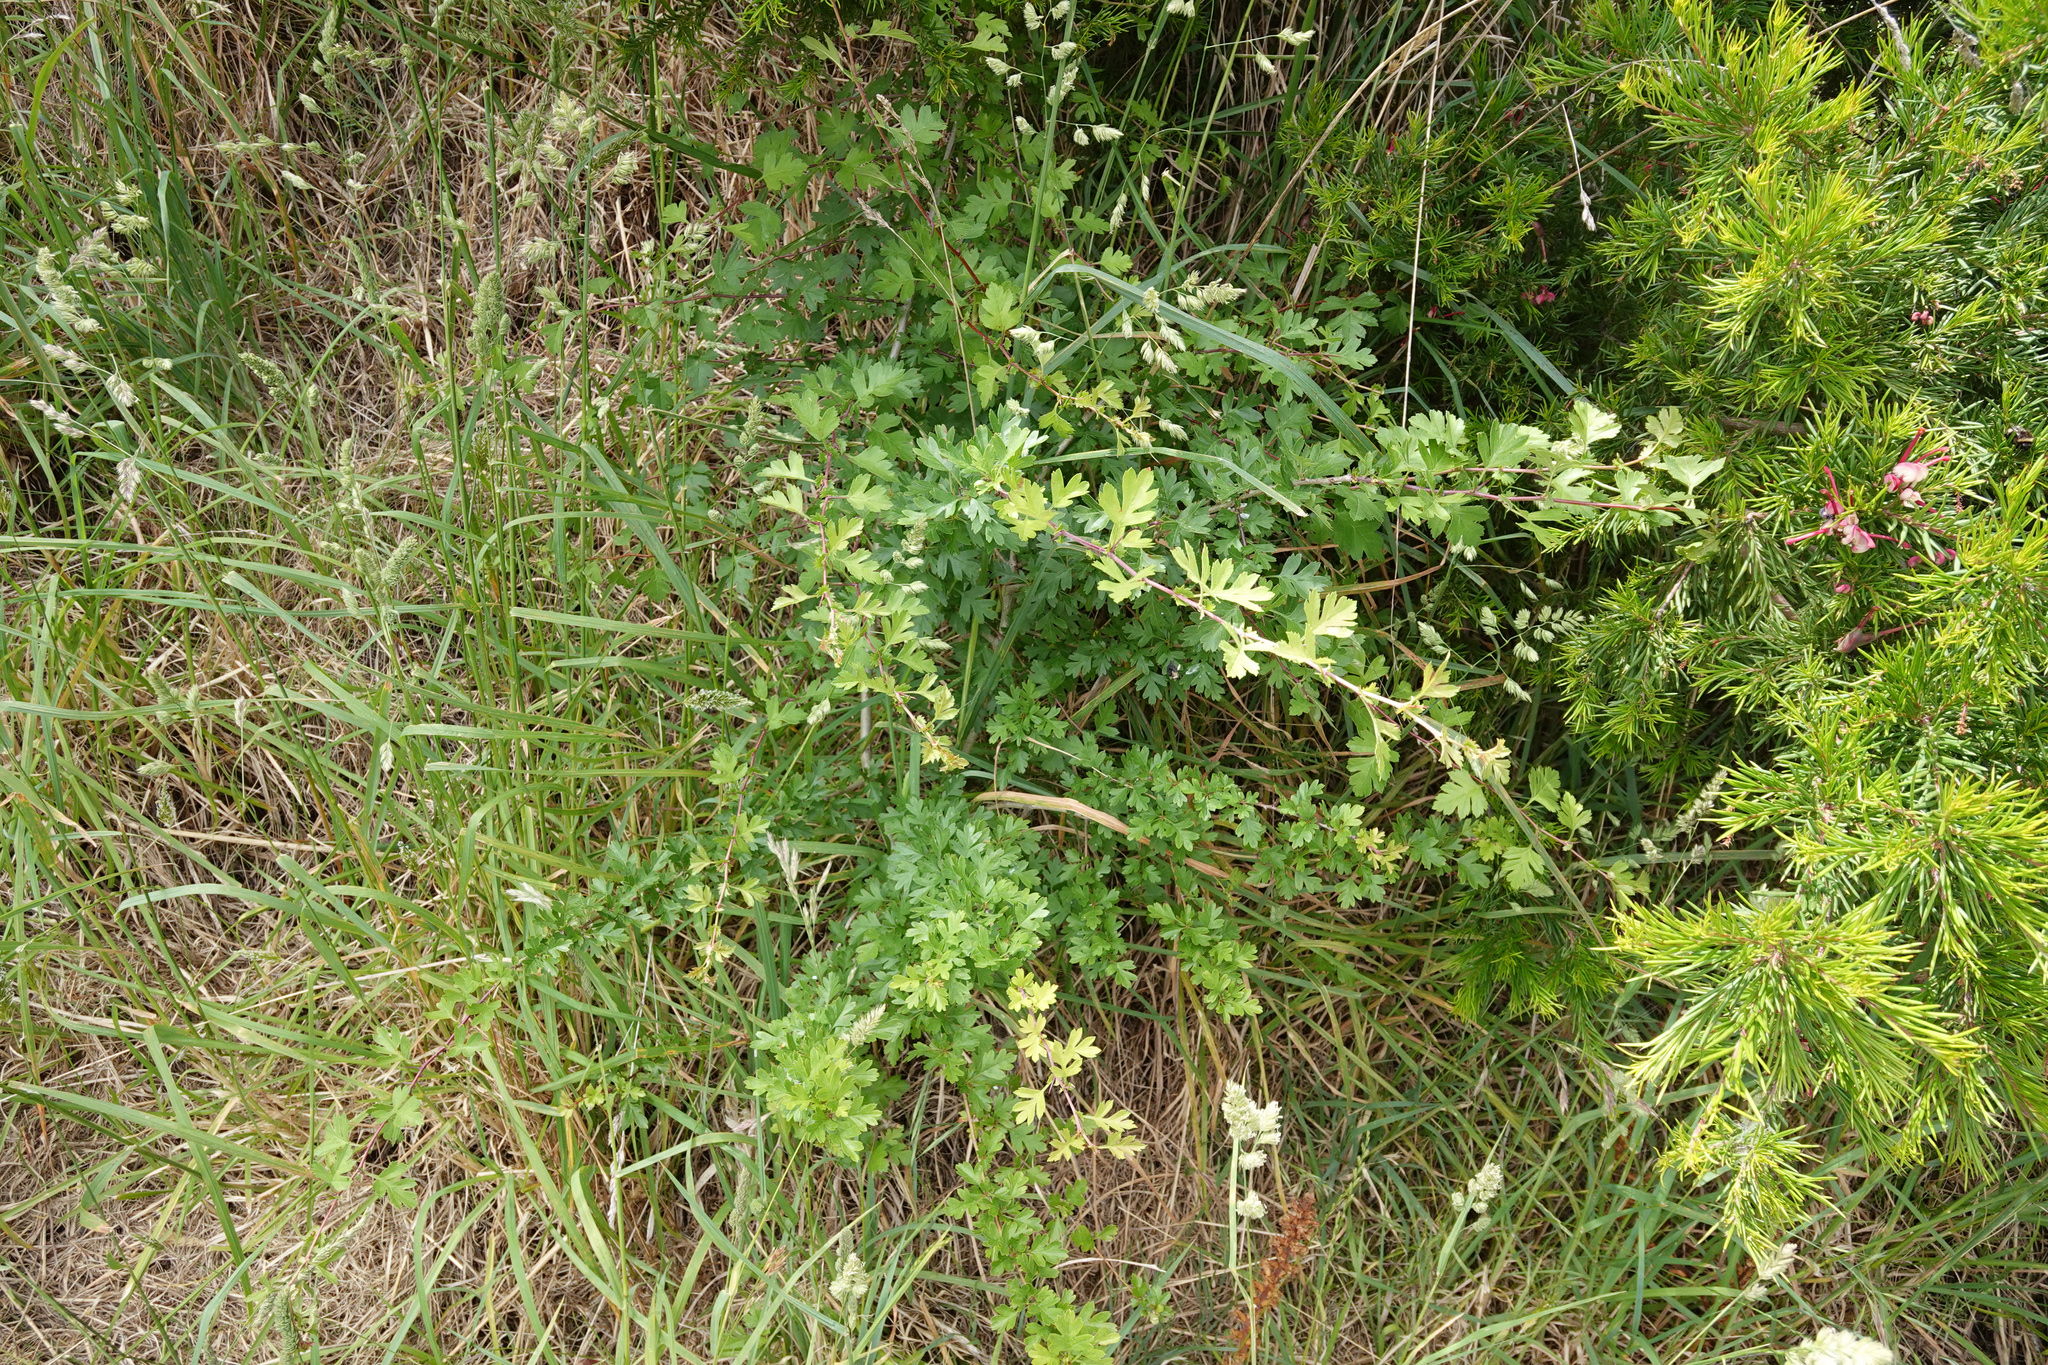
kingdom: Plantae
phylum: Tracheophyta
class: Magnoliopsida
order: Rosales
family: Rosaceae
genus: Crataegus
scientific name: Crataegus monogyna
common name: Hawthorn
